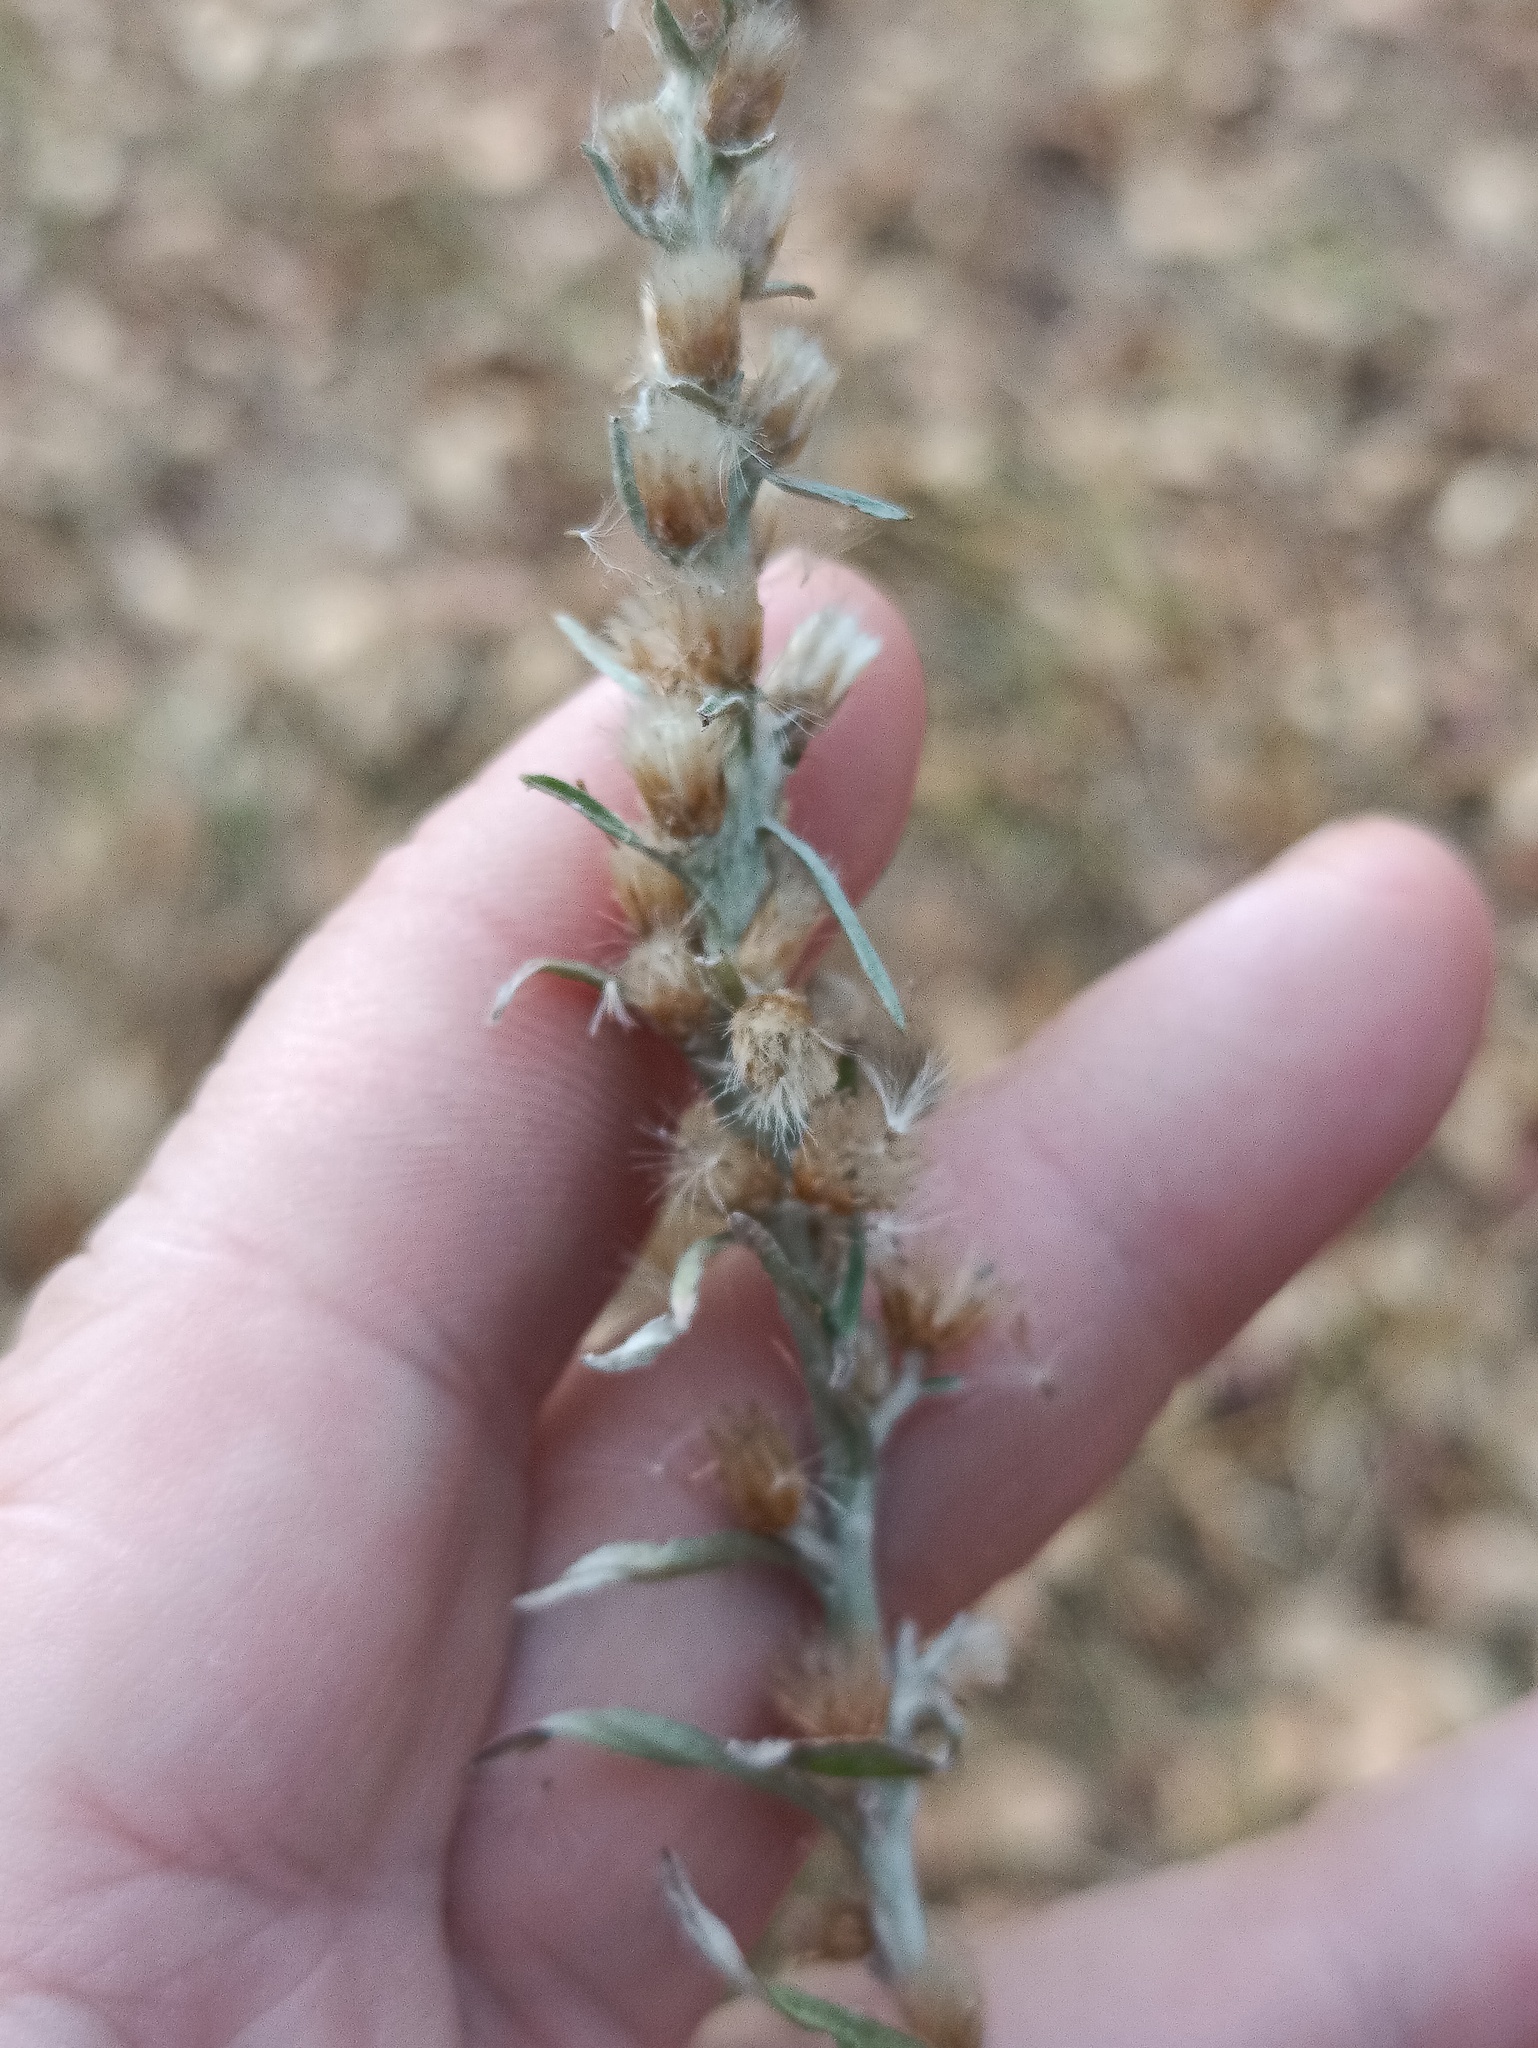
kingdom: Plantae
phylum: Tracheophyta
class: Magnoliopsida
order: Asterales
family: Asteraceae
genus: Omalotheca
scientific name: Omalotheca sylvatica
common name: Heath cudweed
